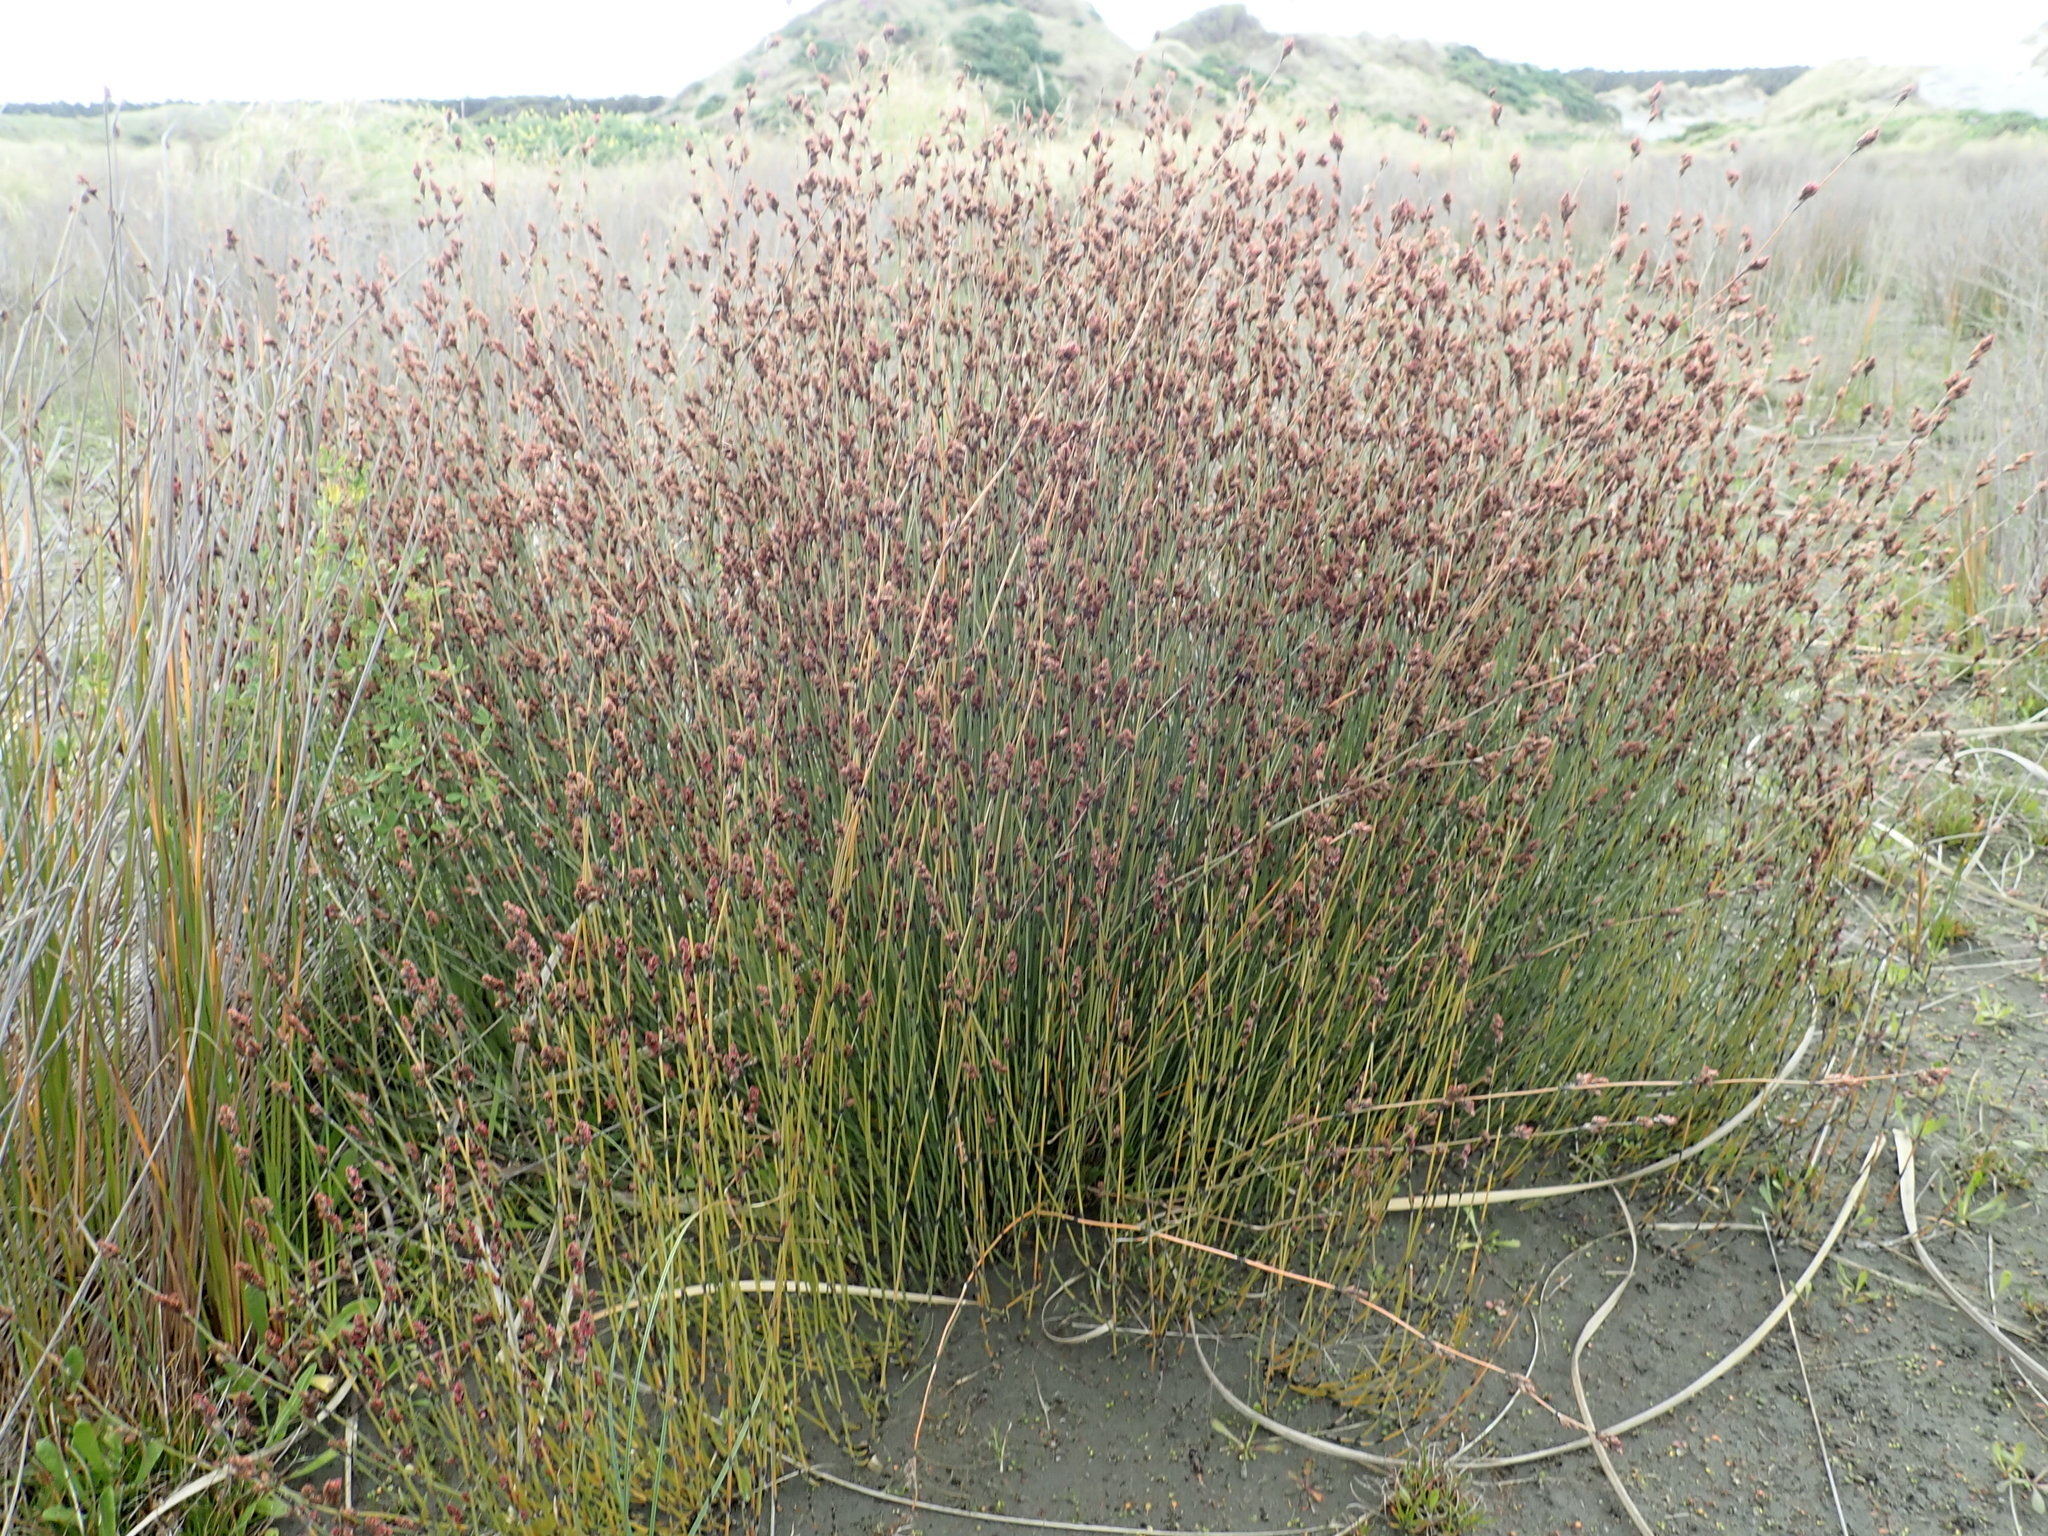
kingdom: Plantae
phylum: Tracheophyta
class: Liliopsida
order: Poales
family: Restionaceae
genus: Apodasmia
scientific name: Apodasmia similis
